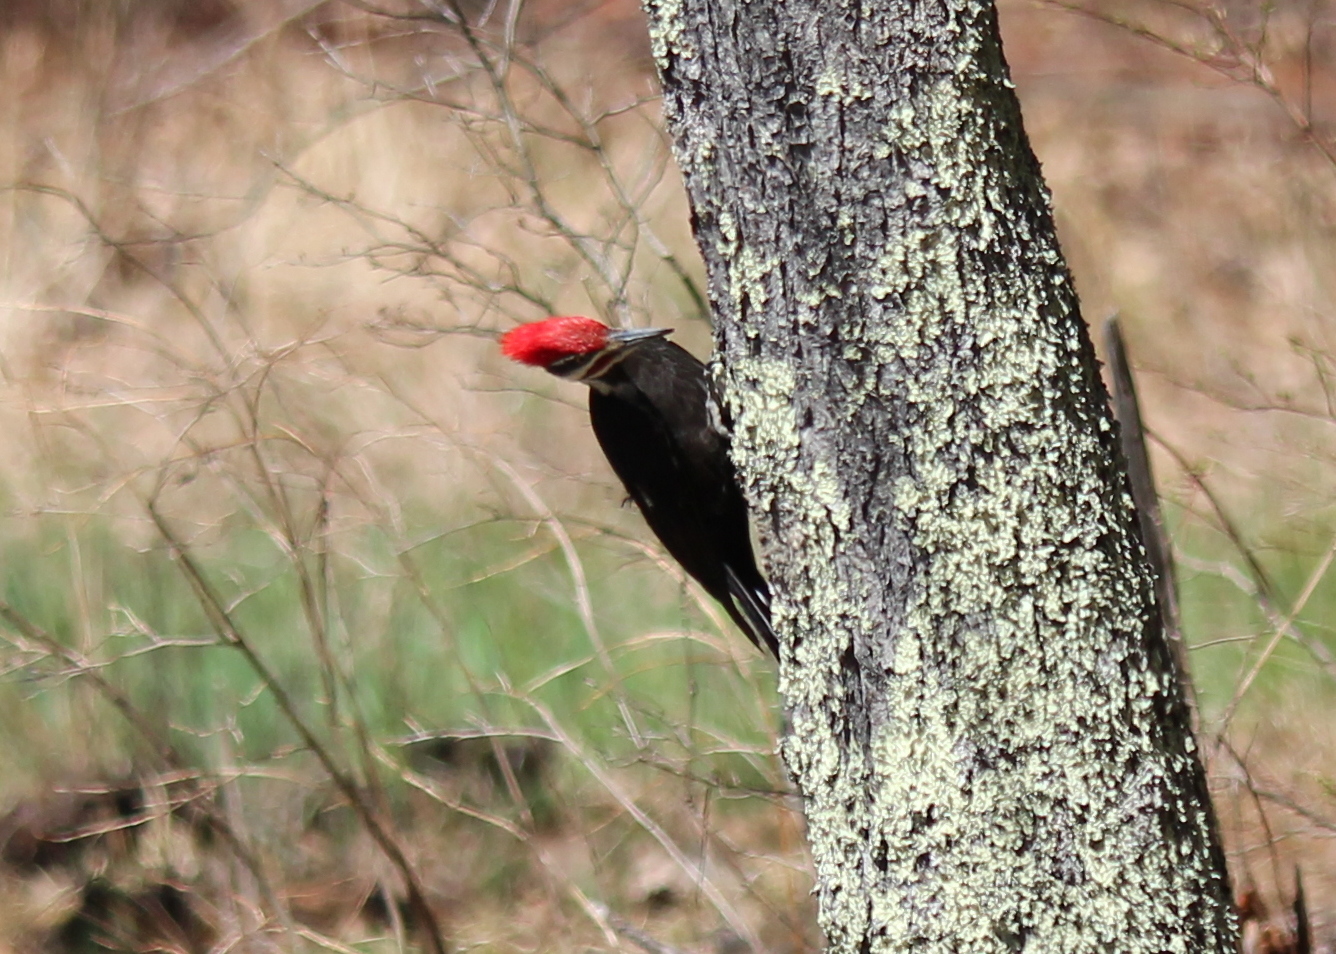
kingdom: Animalia
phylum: Chordata
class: Aves
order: Piciformes
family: Picidae
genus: Dryocopus
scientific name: Dryocopus pileatus
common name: Pileated woodpecker
